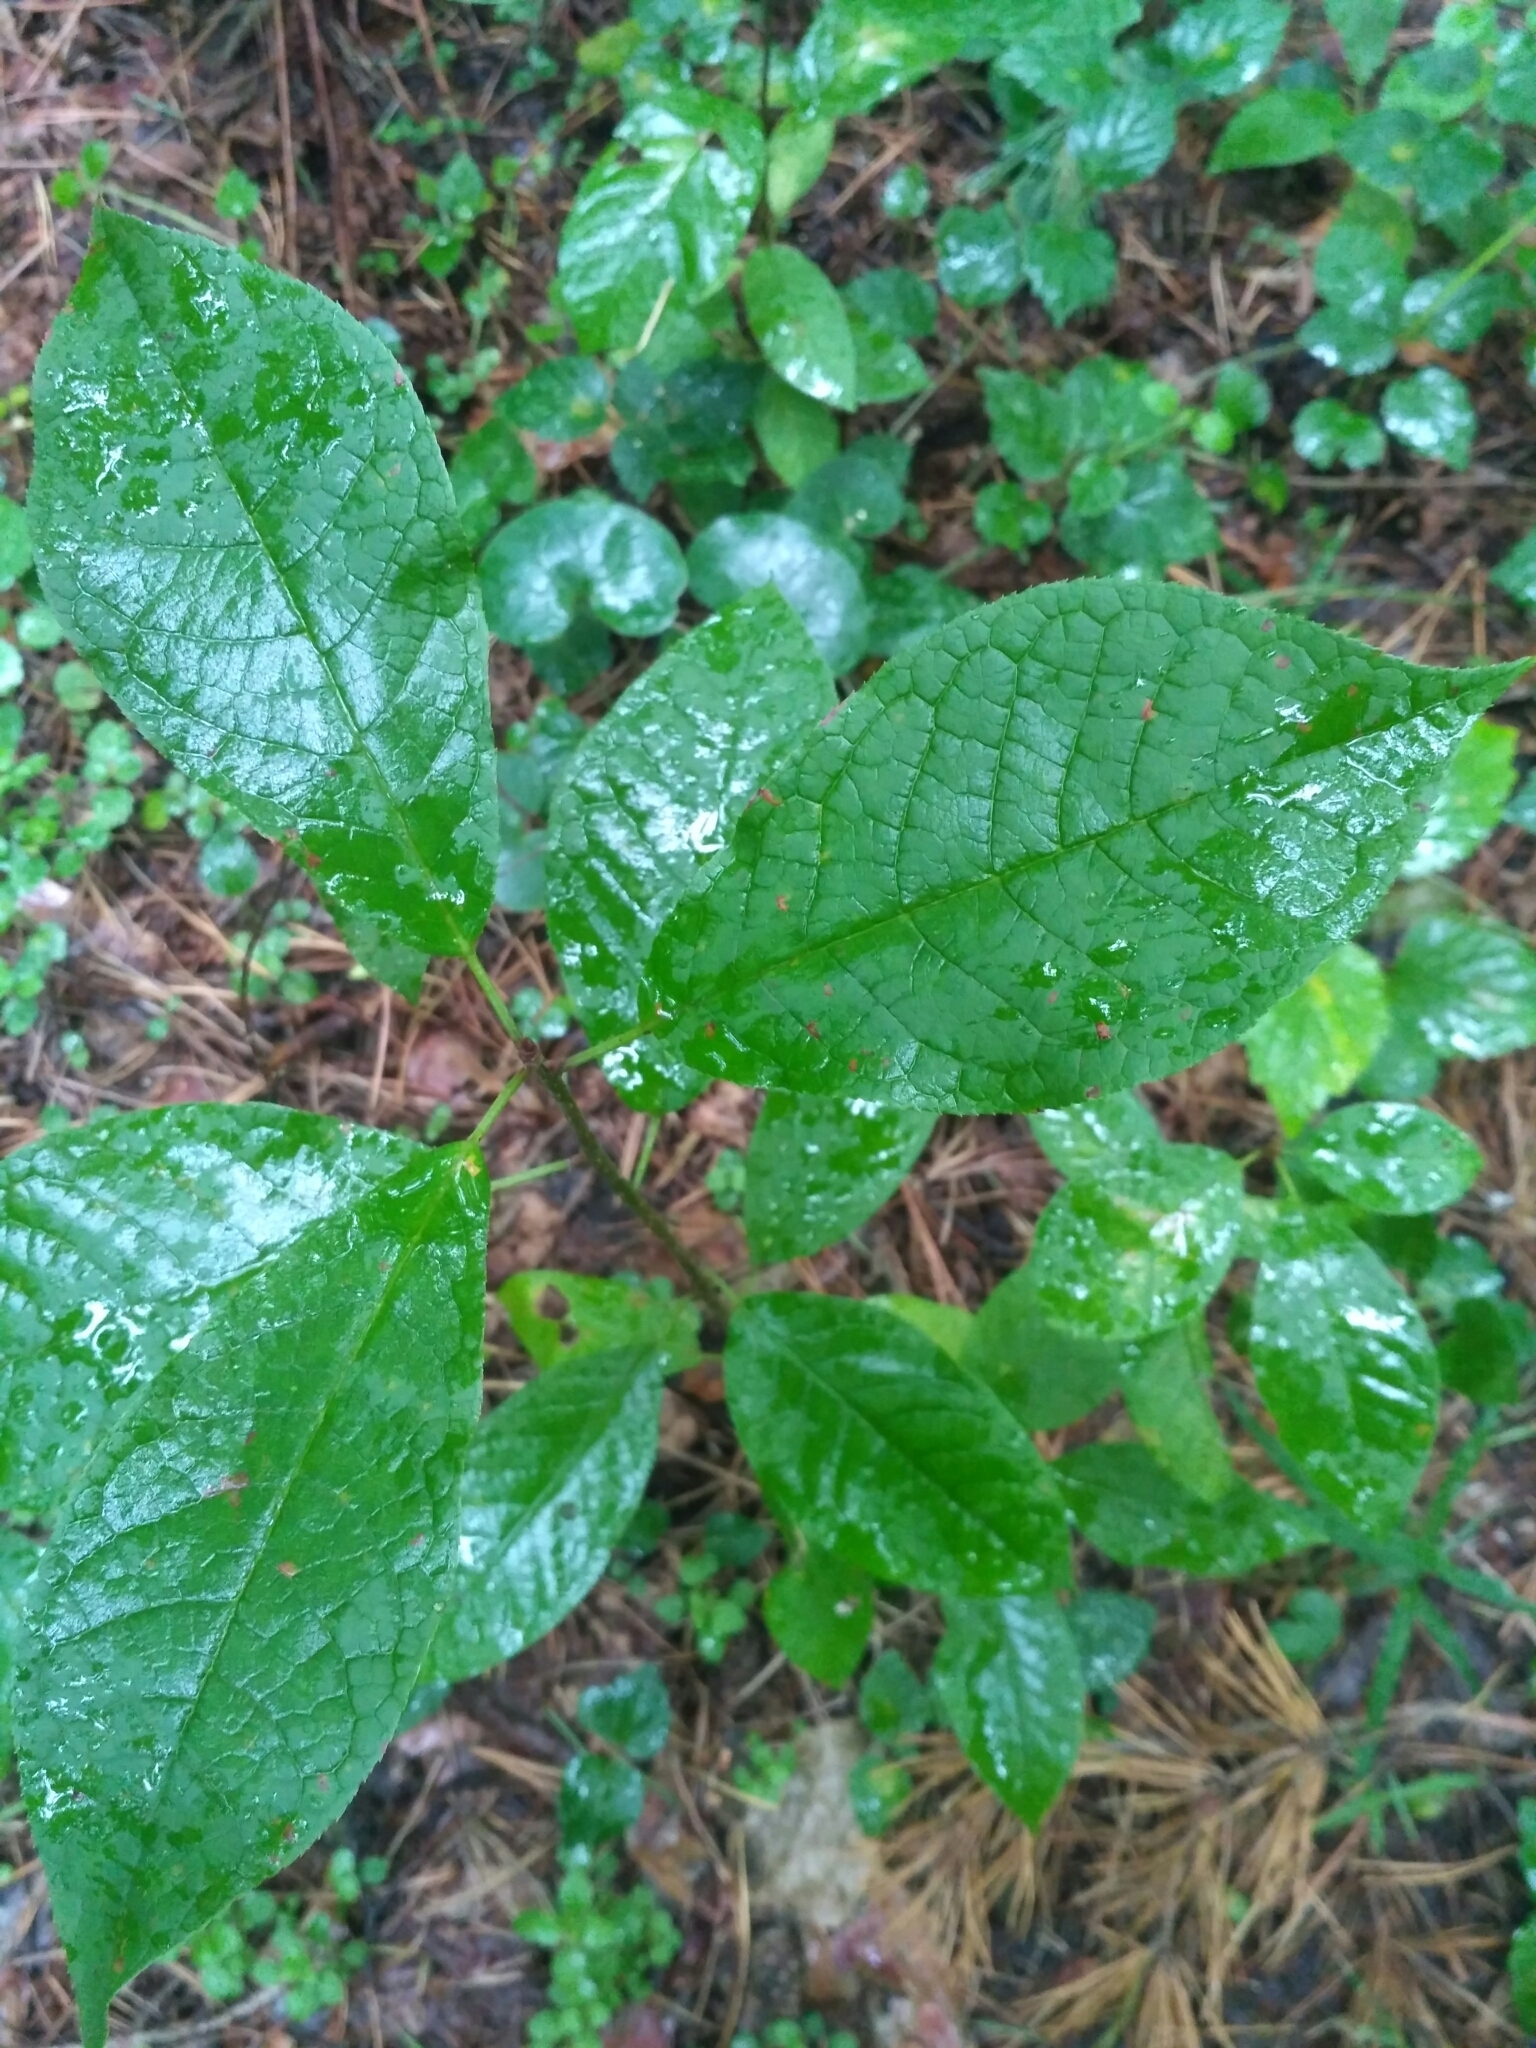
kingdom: Plantae
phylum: Tracheophyta
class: Magnoliopsida
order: Rosales
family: Rosaceae
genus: Prunus
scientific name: Prunus padus
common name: Bird cherry
